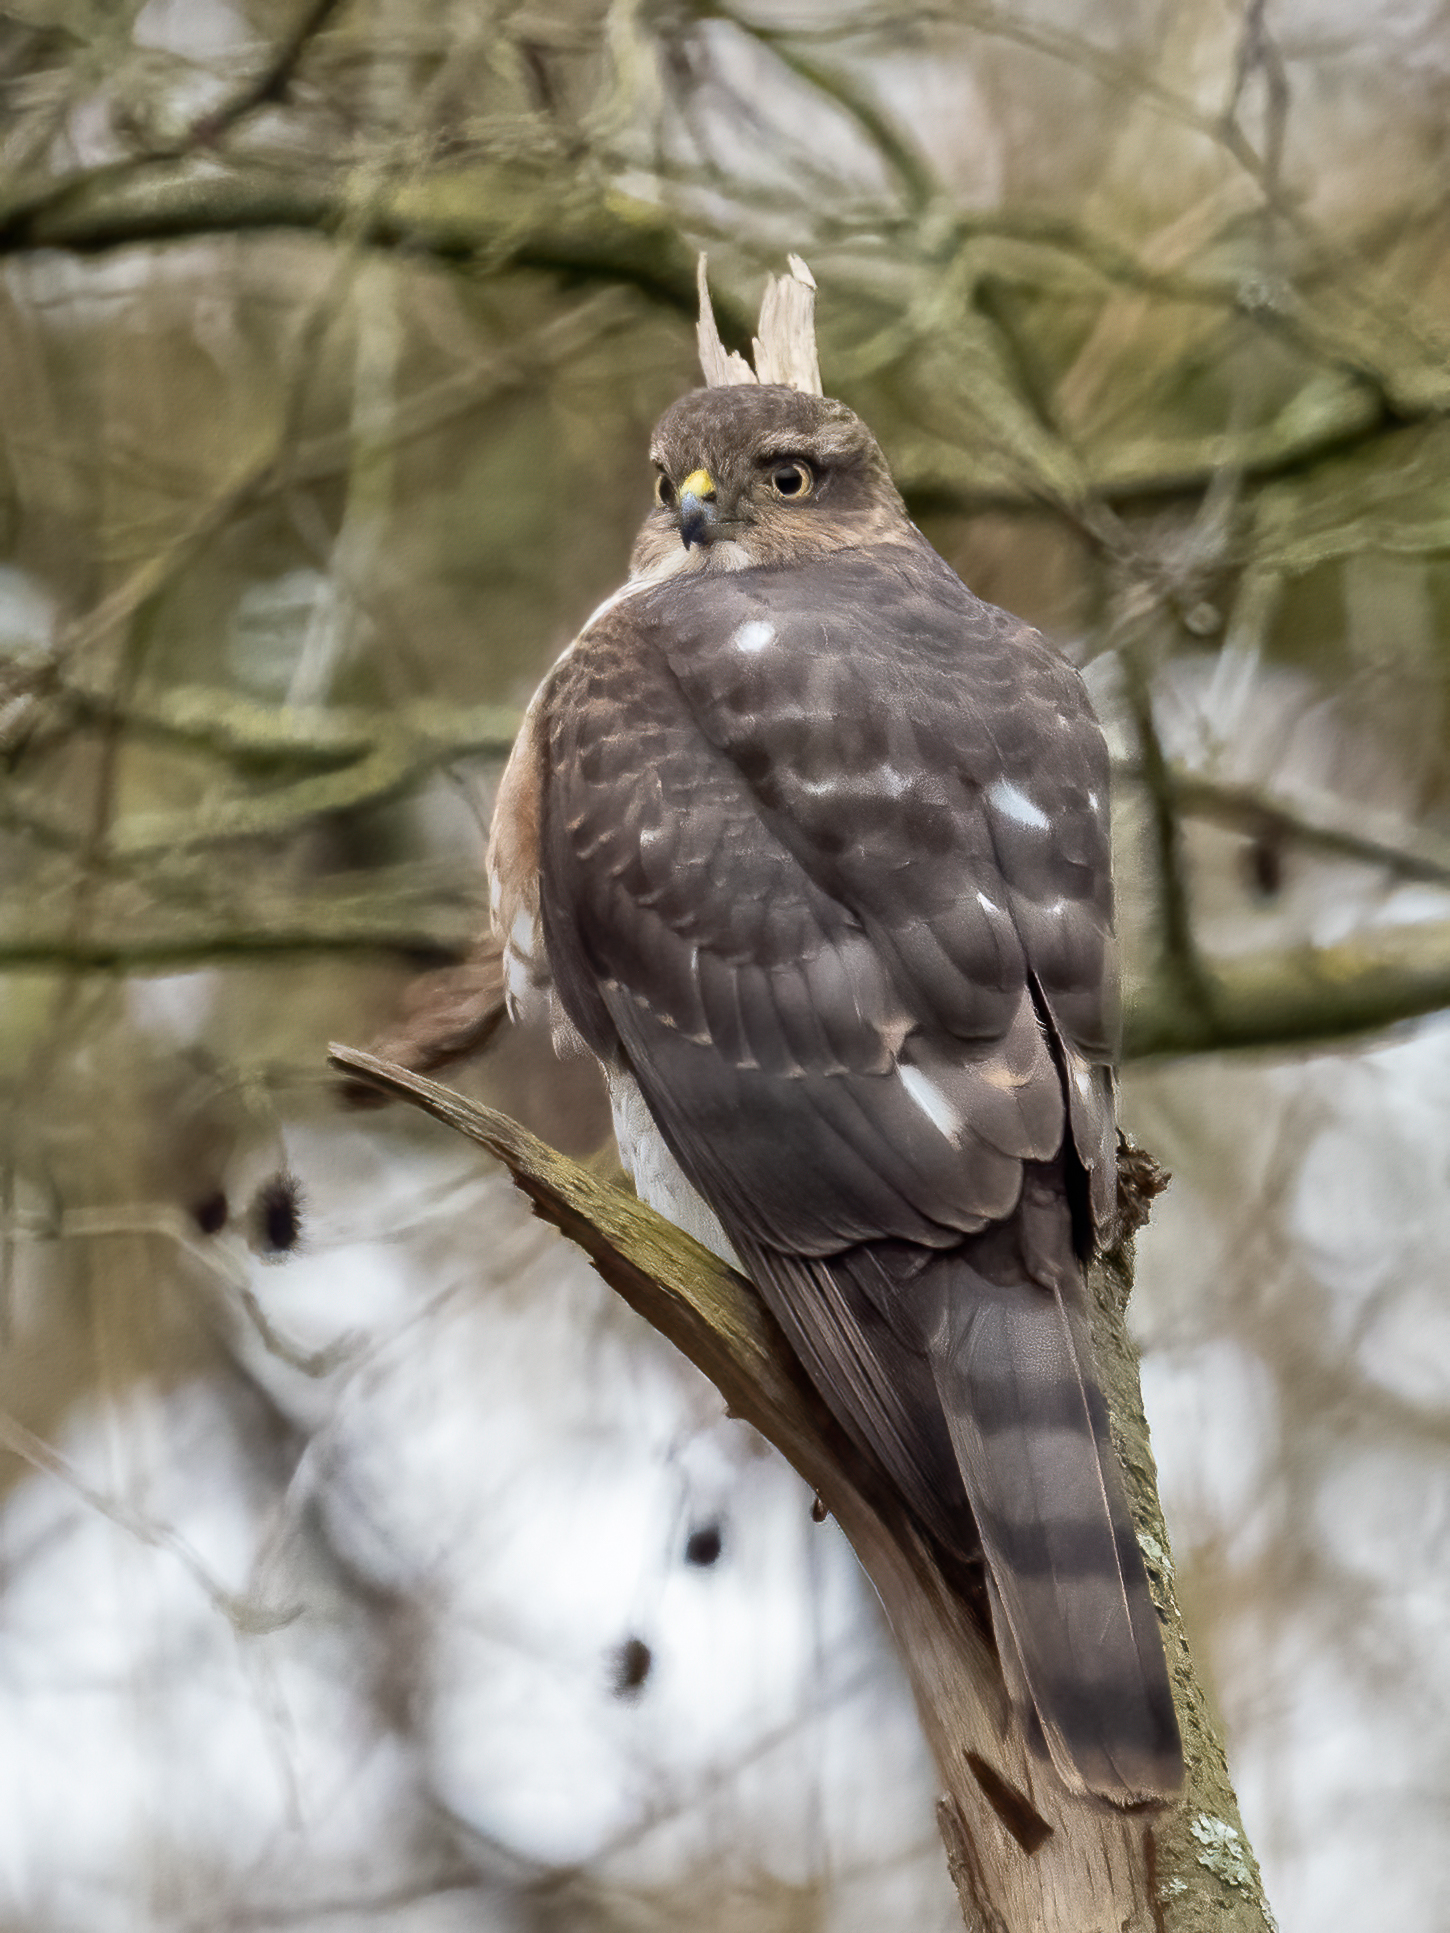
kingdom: Animalia
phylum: Chordata
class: Aves
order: Accipitriformes
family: Accipitridae
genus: Accipiter
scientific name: Accipiter nisus
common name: Eurasian sparrowhawk
